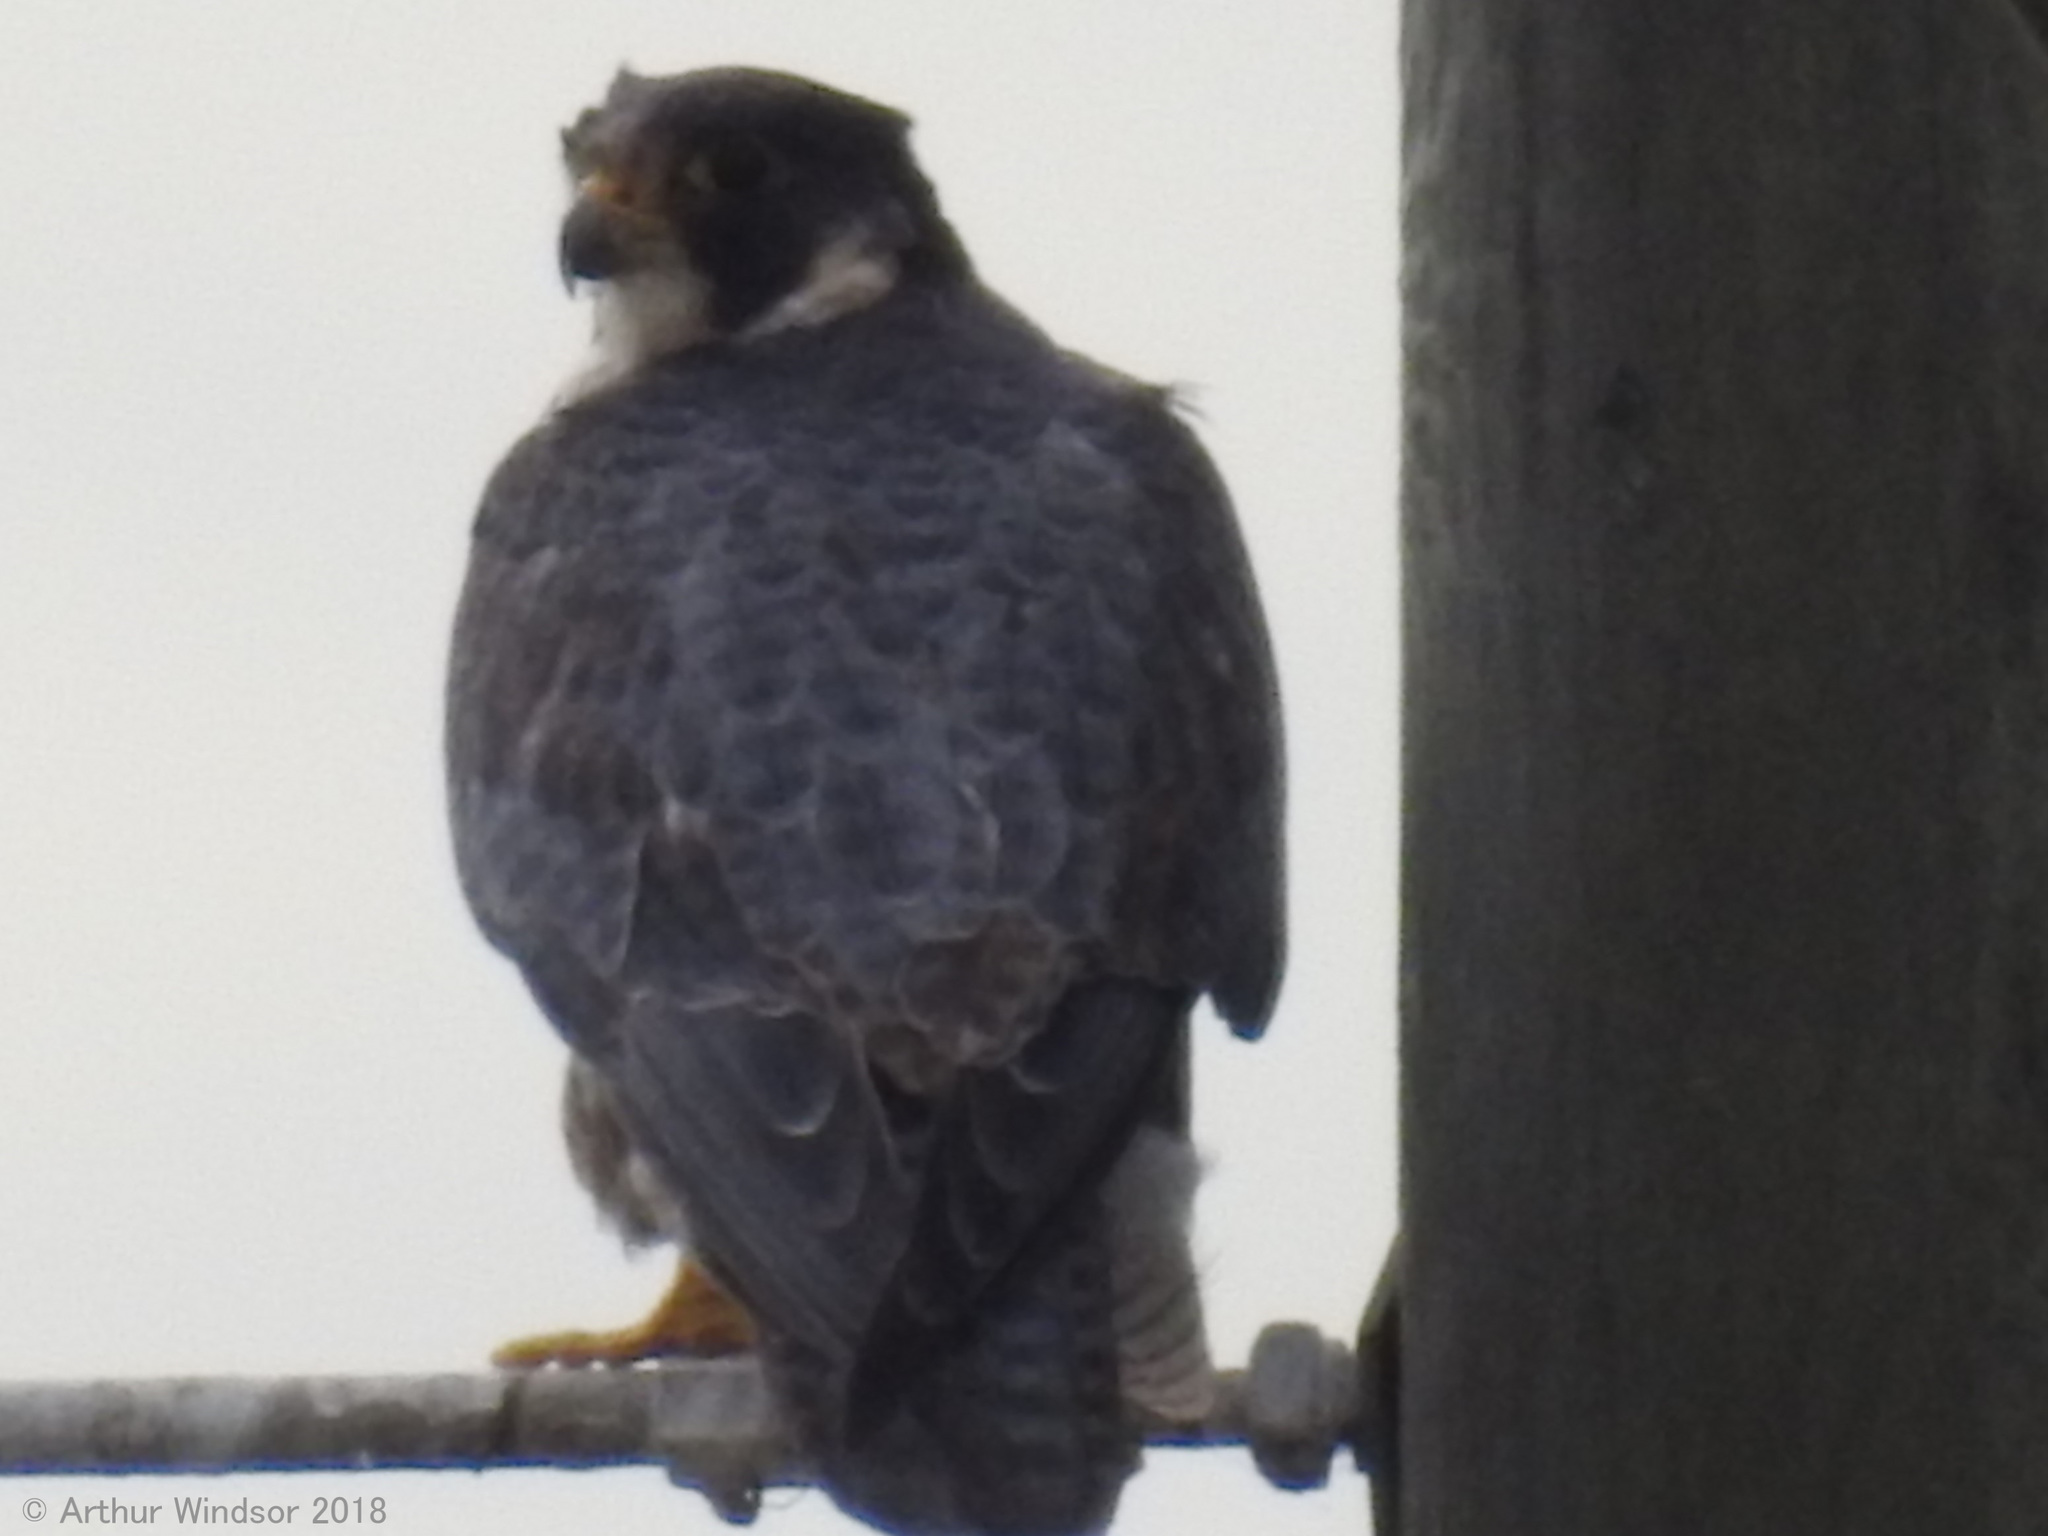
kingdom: Animalia
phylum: Chordata
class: Aves
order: Falconiformes
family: Falconidae
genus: Falco
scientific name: Falco peregrinus
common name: Peregrine falcon
